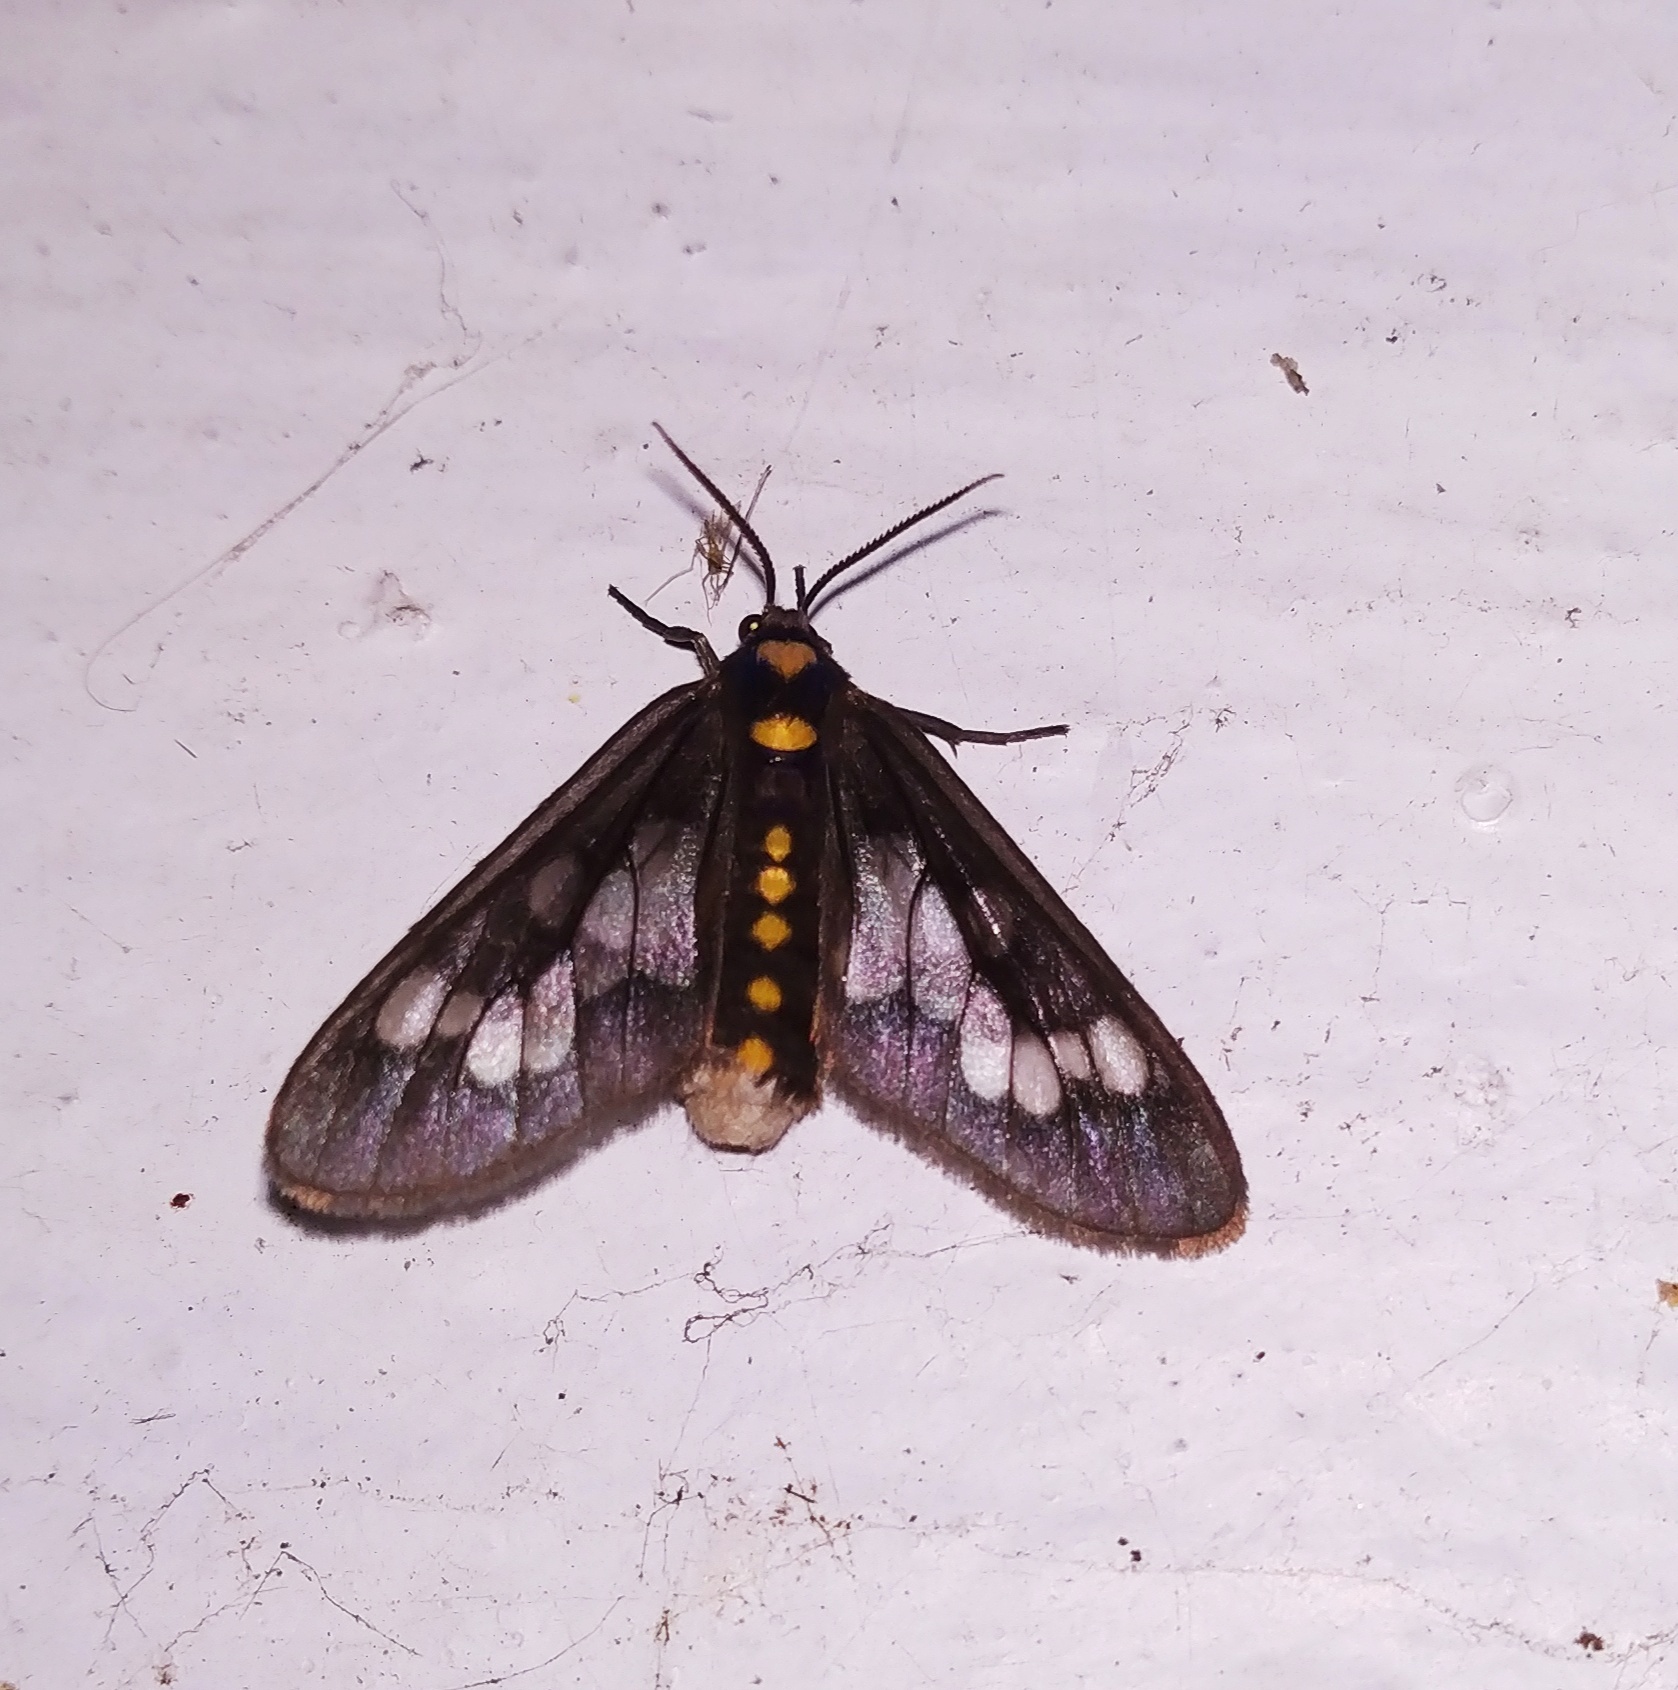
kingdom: Animalia
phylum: Arthropoda
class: Insecta
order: Lepidoptera
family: Erebidae
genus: Eressa
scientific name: Eressa confinis
